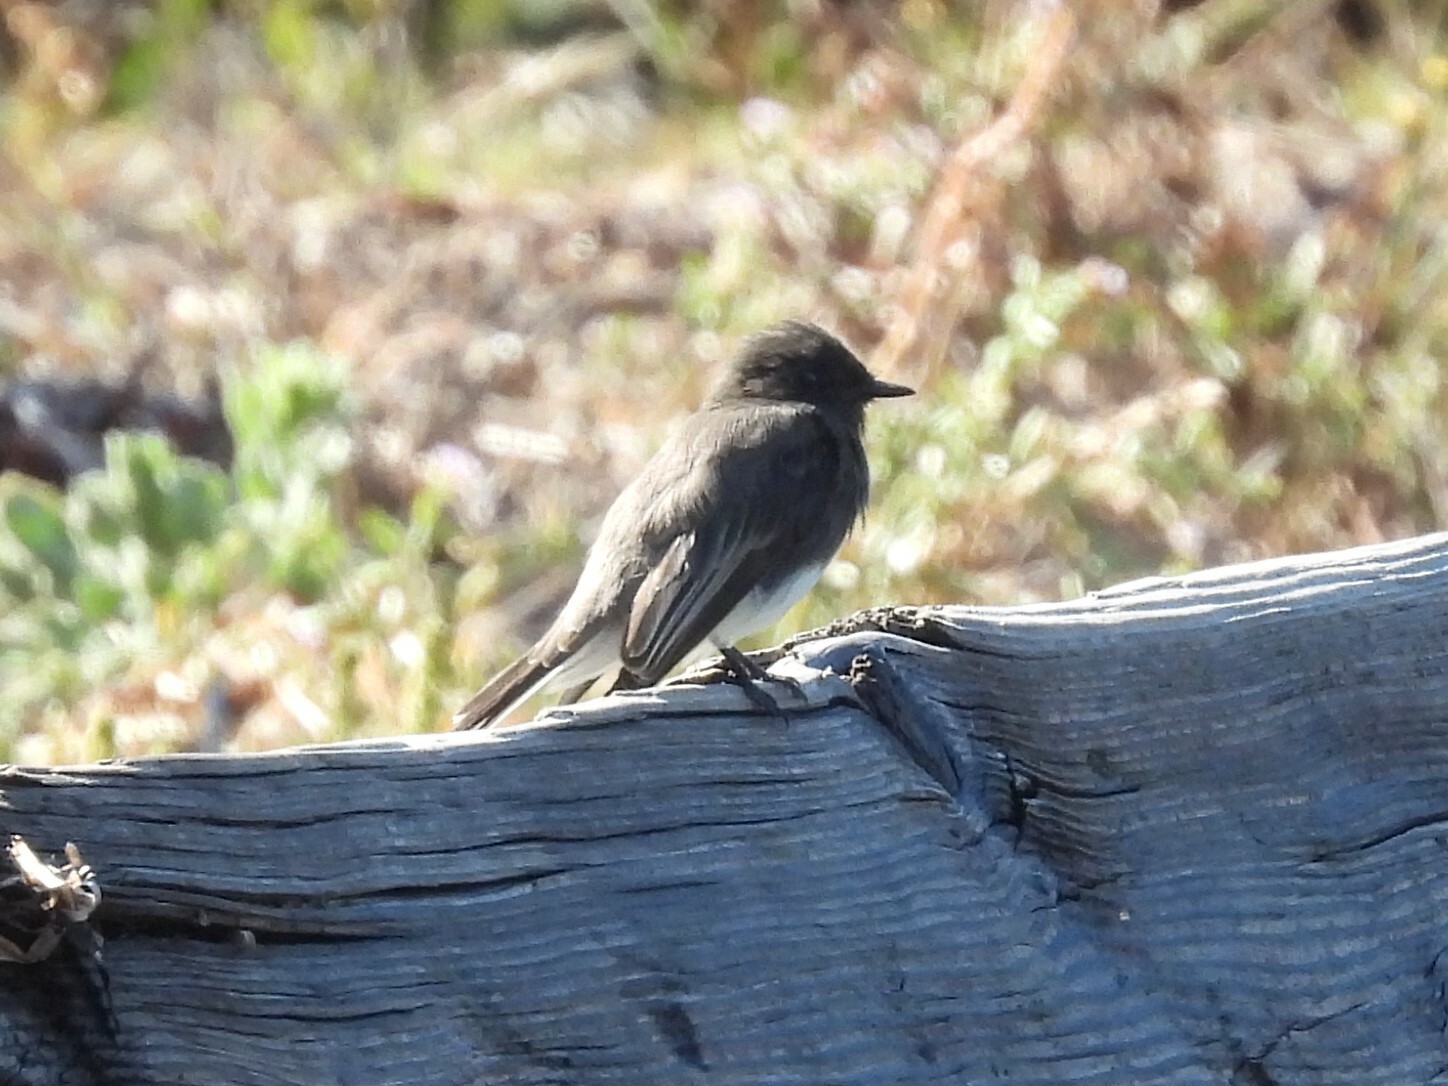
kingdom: Animalia
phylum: Chordata
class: Aves
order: Passeriformes
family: Tyrannidae
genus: Sayornis
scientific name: Sayornis nigricans
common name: Black phoebe
